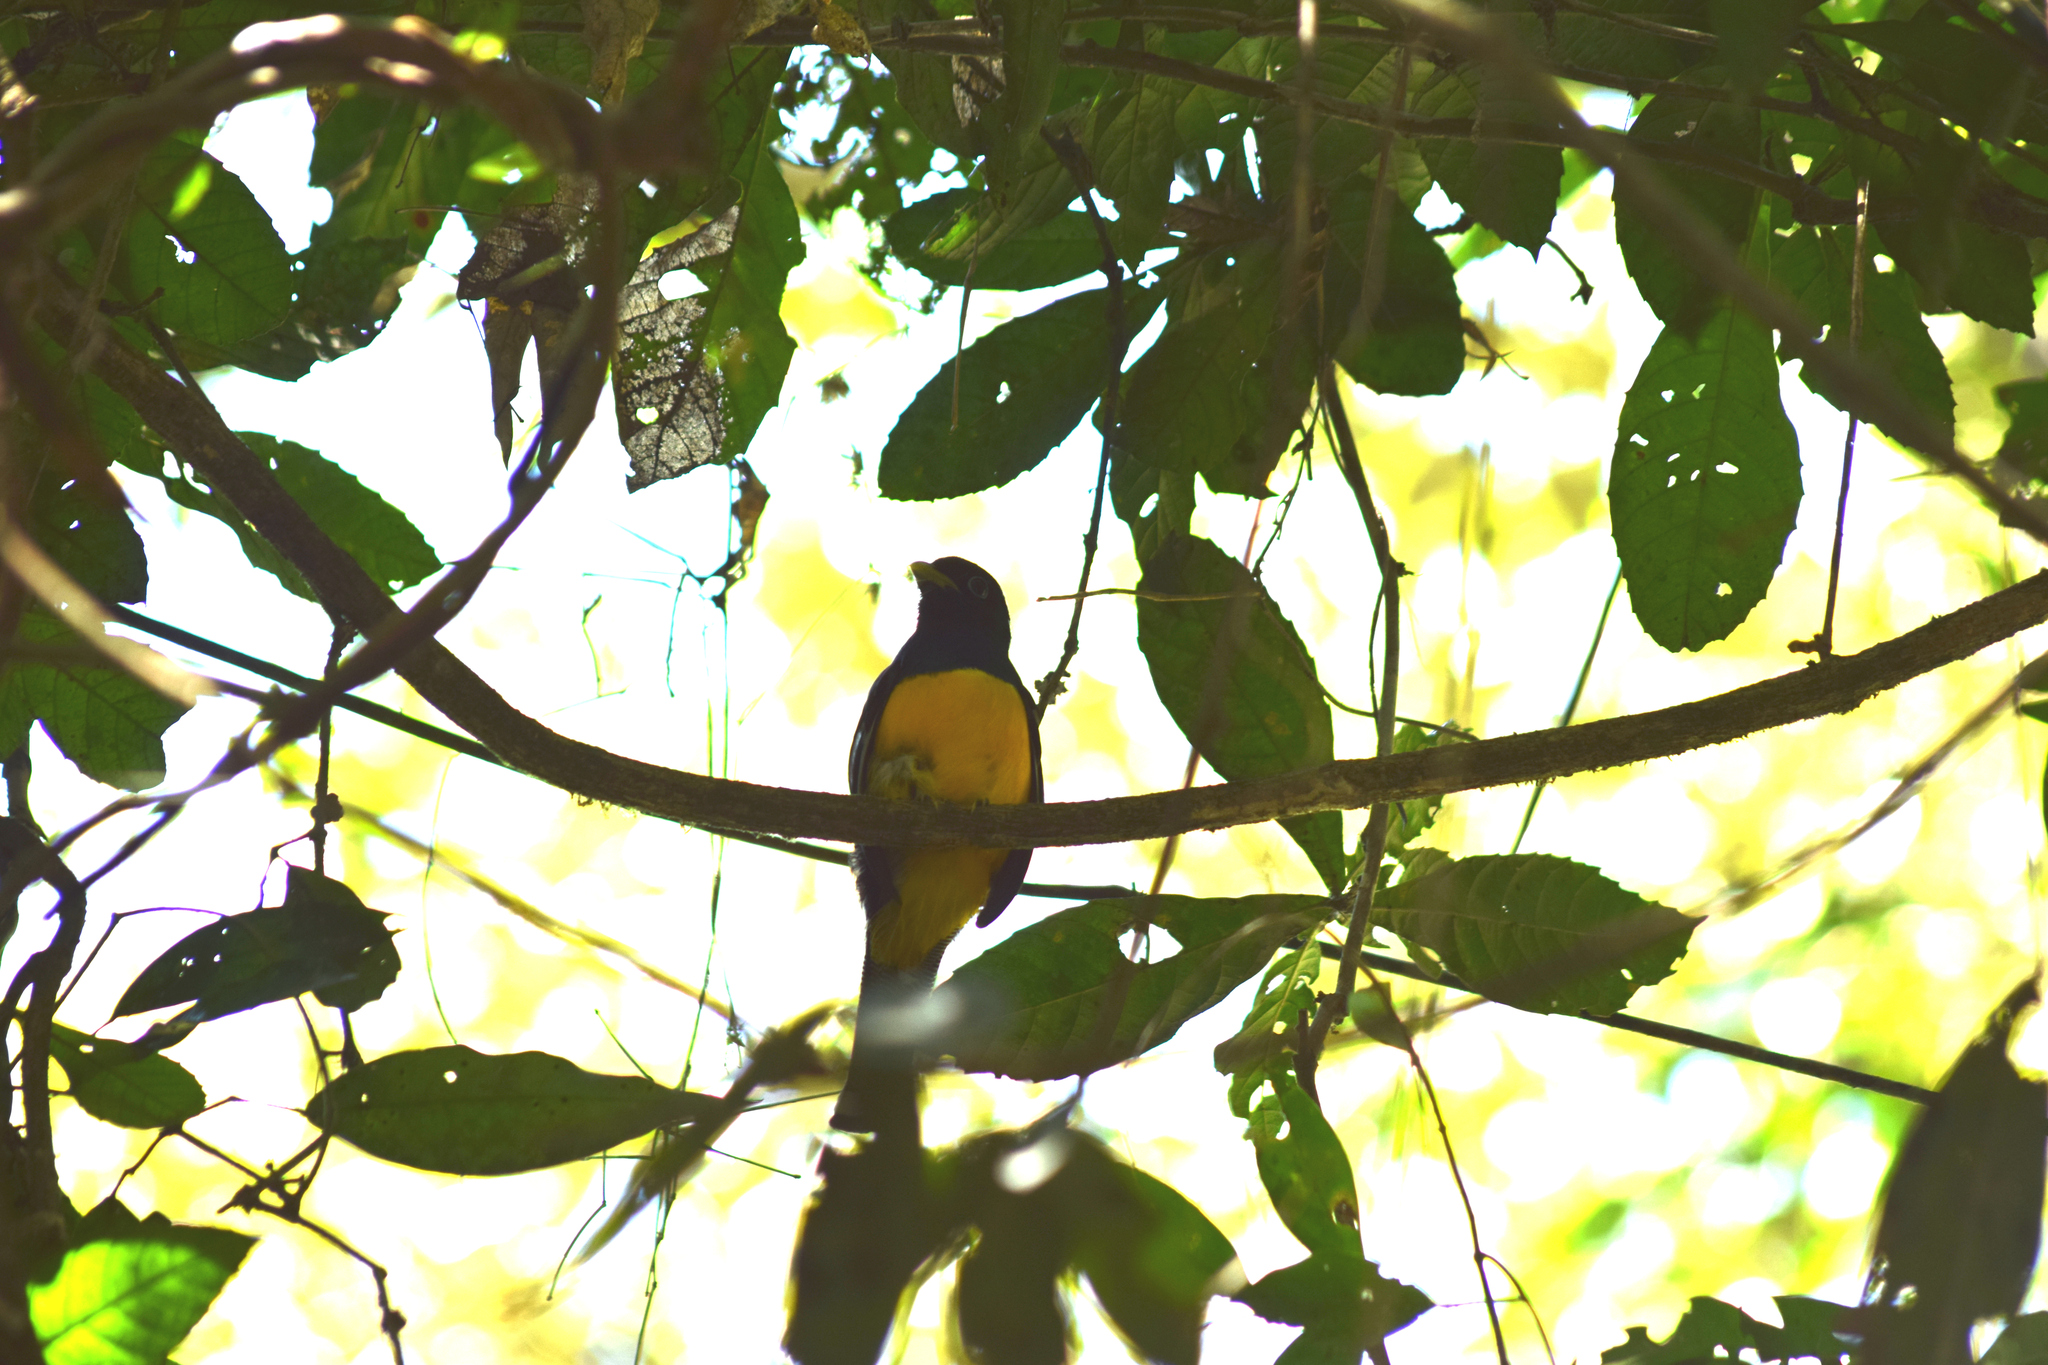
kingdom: Animalia
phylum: Chordata
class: Aves
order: Trogoniformes
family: Trogonidae
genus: Trogon
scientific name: Trogon viridis
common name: Green-backed trogon
